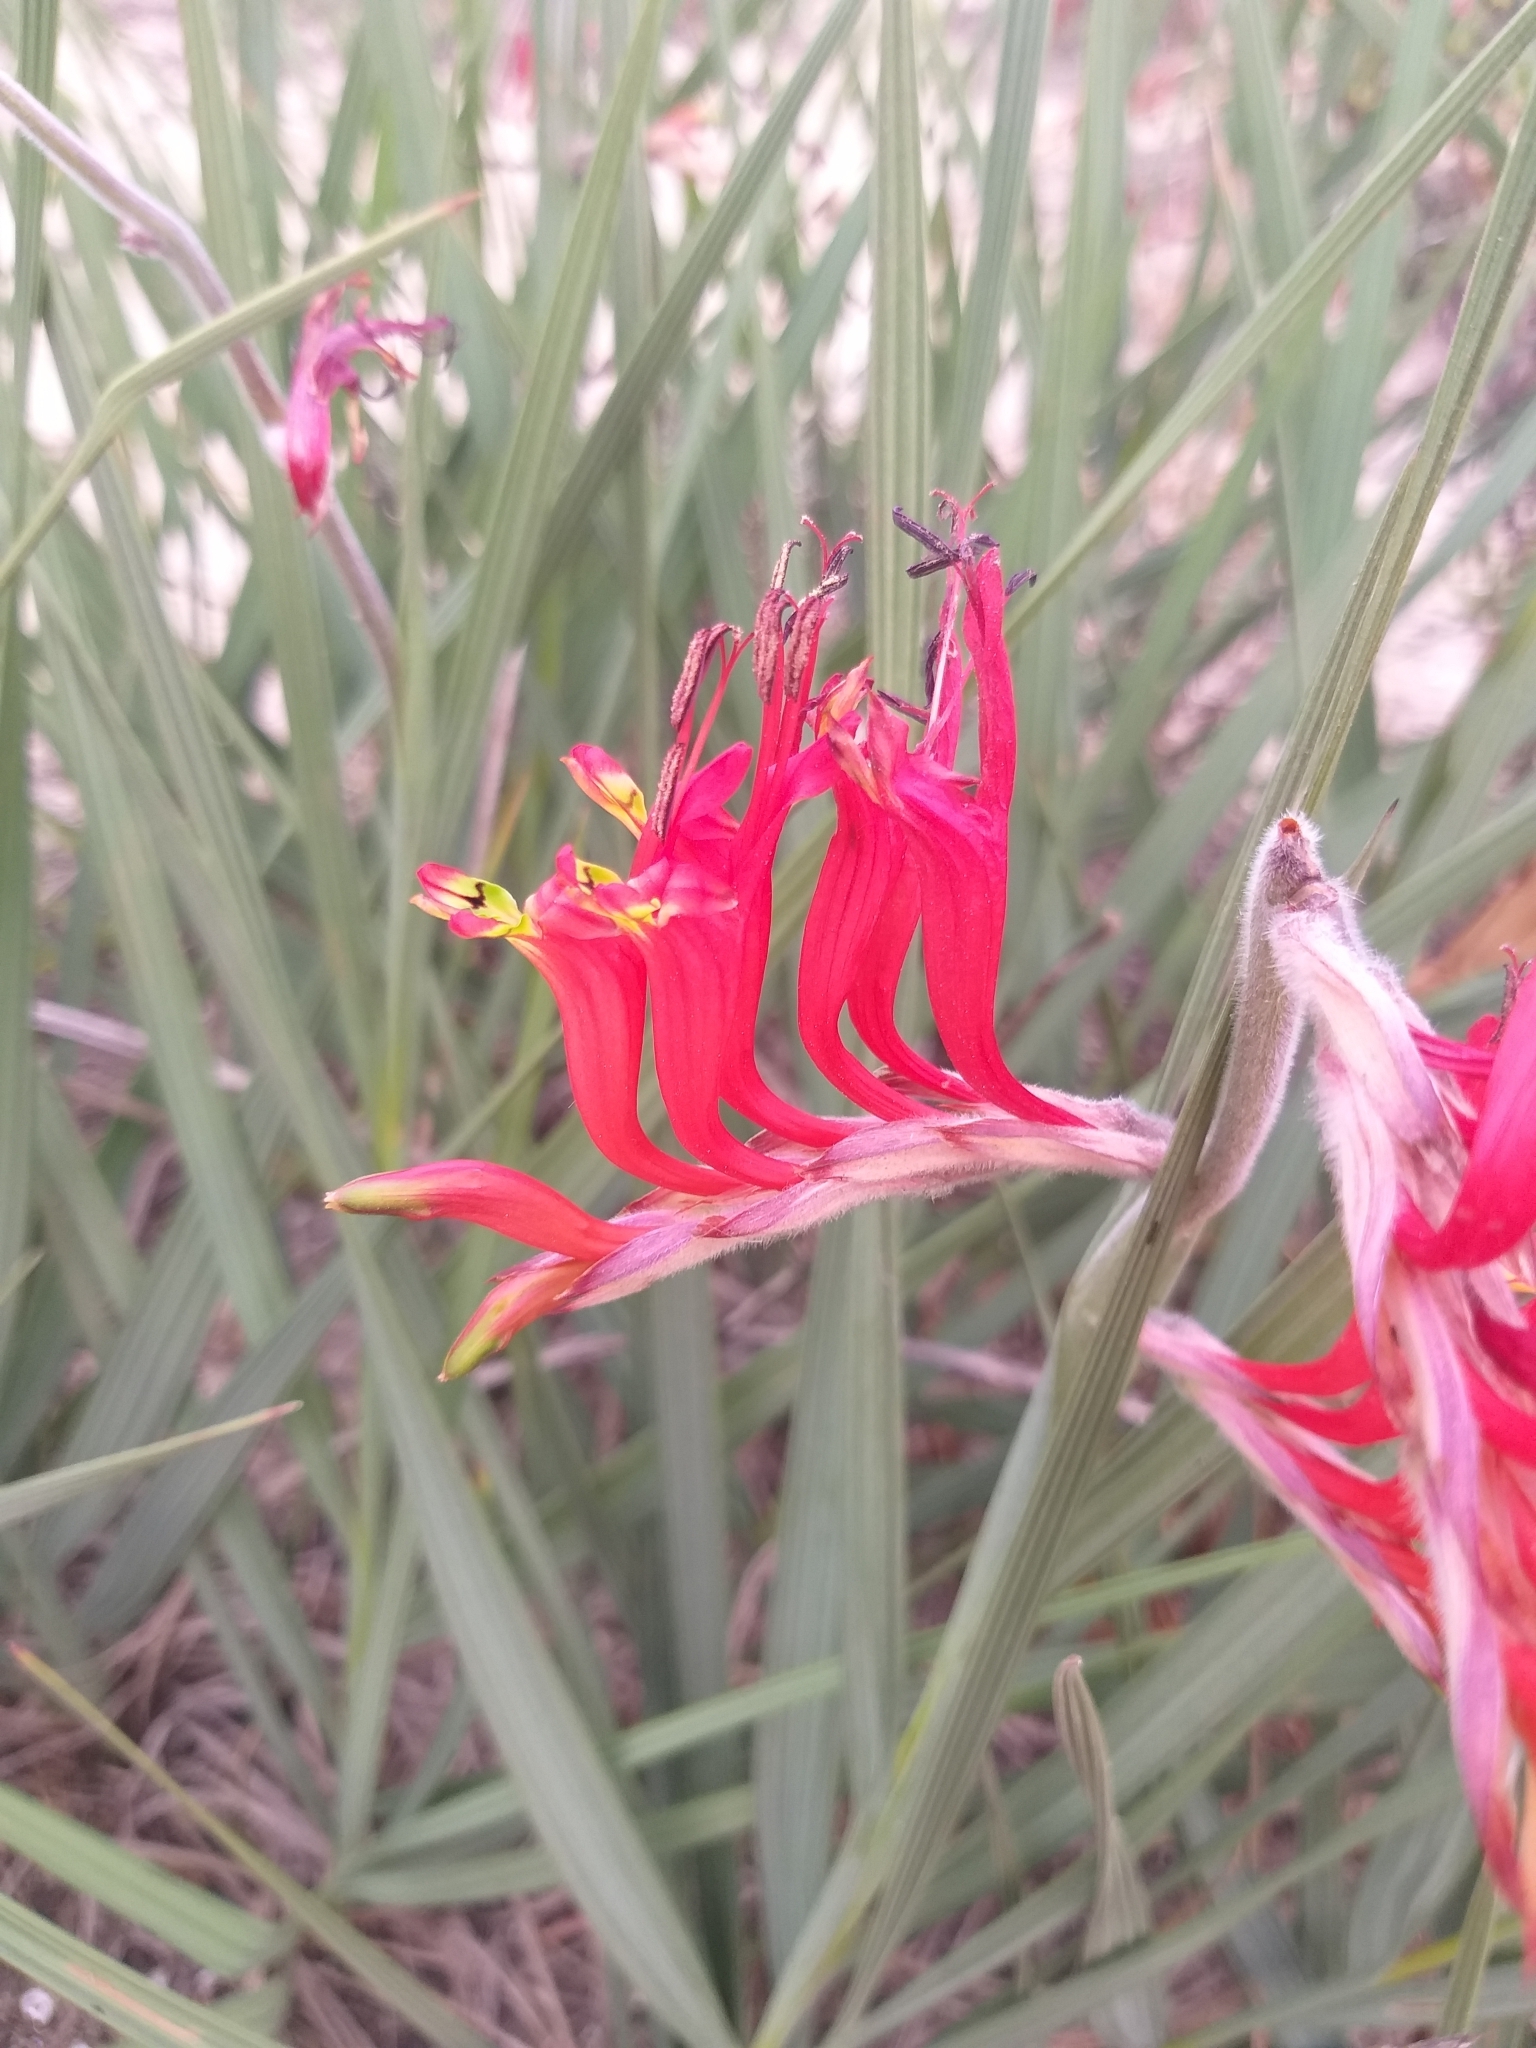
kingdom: Plantae
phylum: Tracheophyta
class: Liliopsida
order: Asparagales
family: Iridaceae
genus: Babiana
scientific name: Babiana hirsuta
